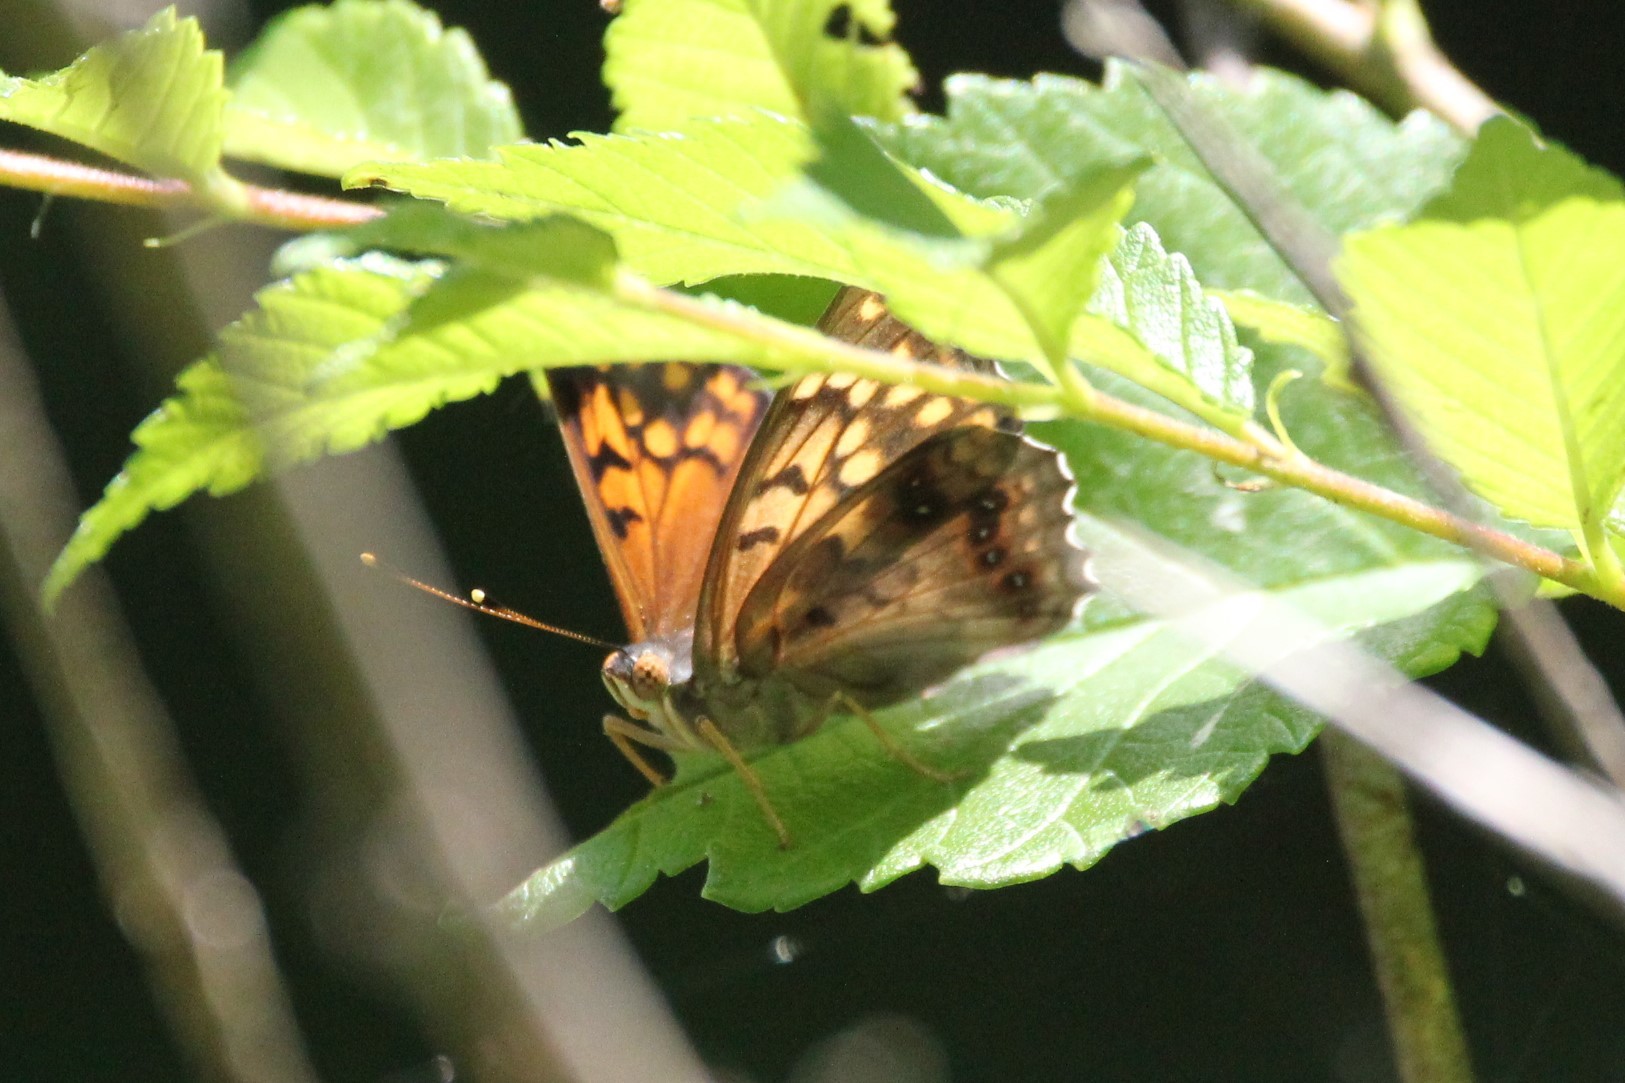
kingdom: Animalia
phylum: Arthropoda
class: Insecta
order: Lepidoptera
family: Nymphalidae
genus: Asterocampa
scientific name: Asterocampa clyton
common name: Tawny emperor
